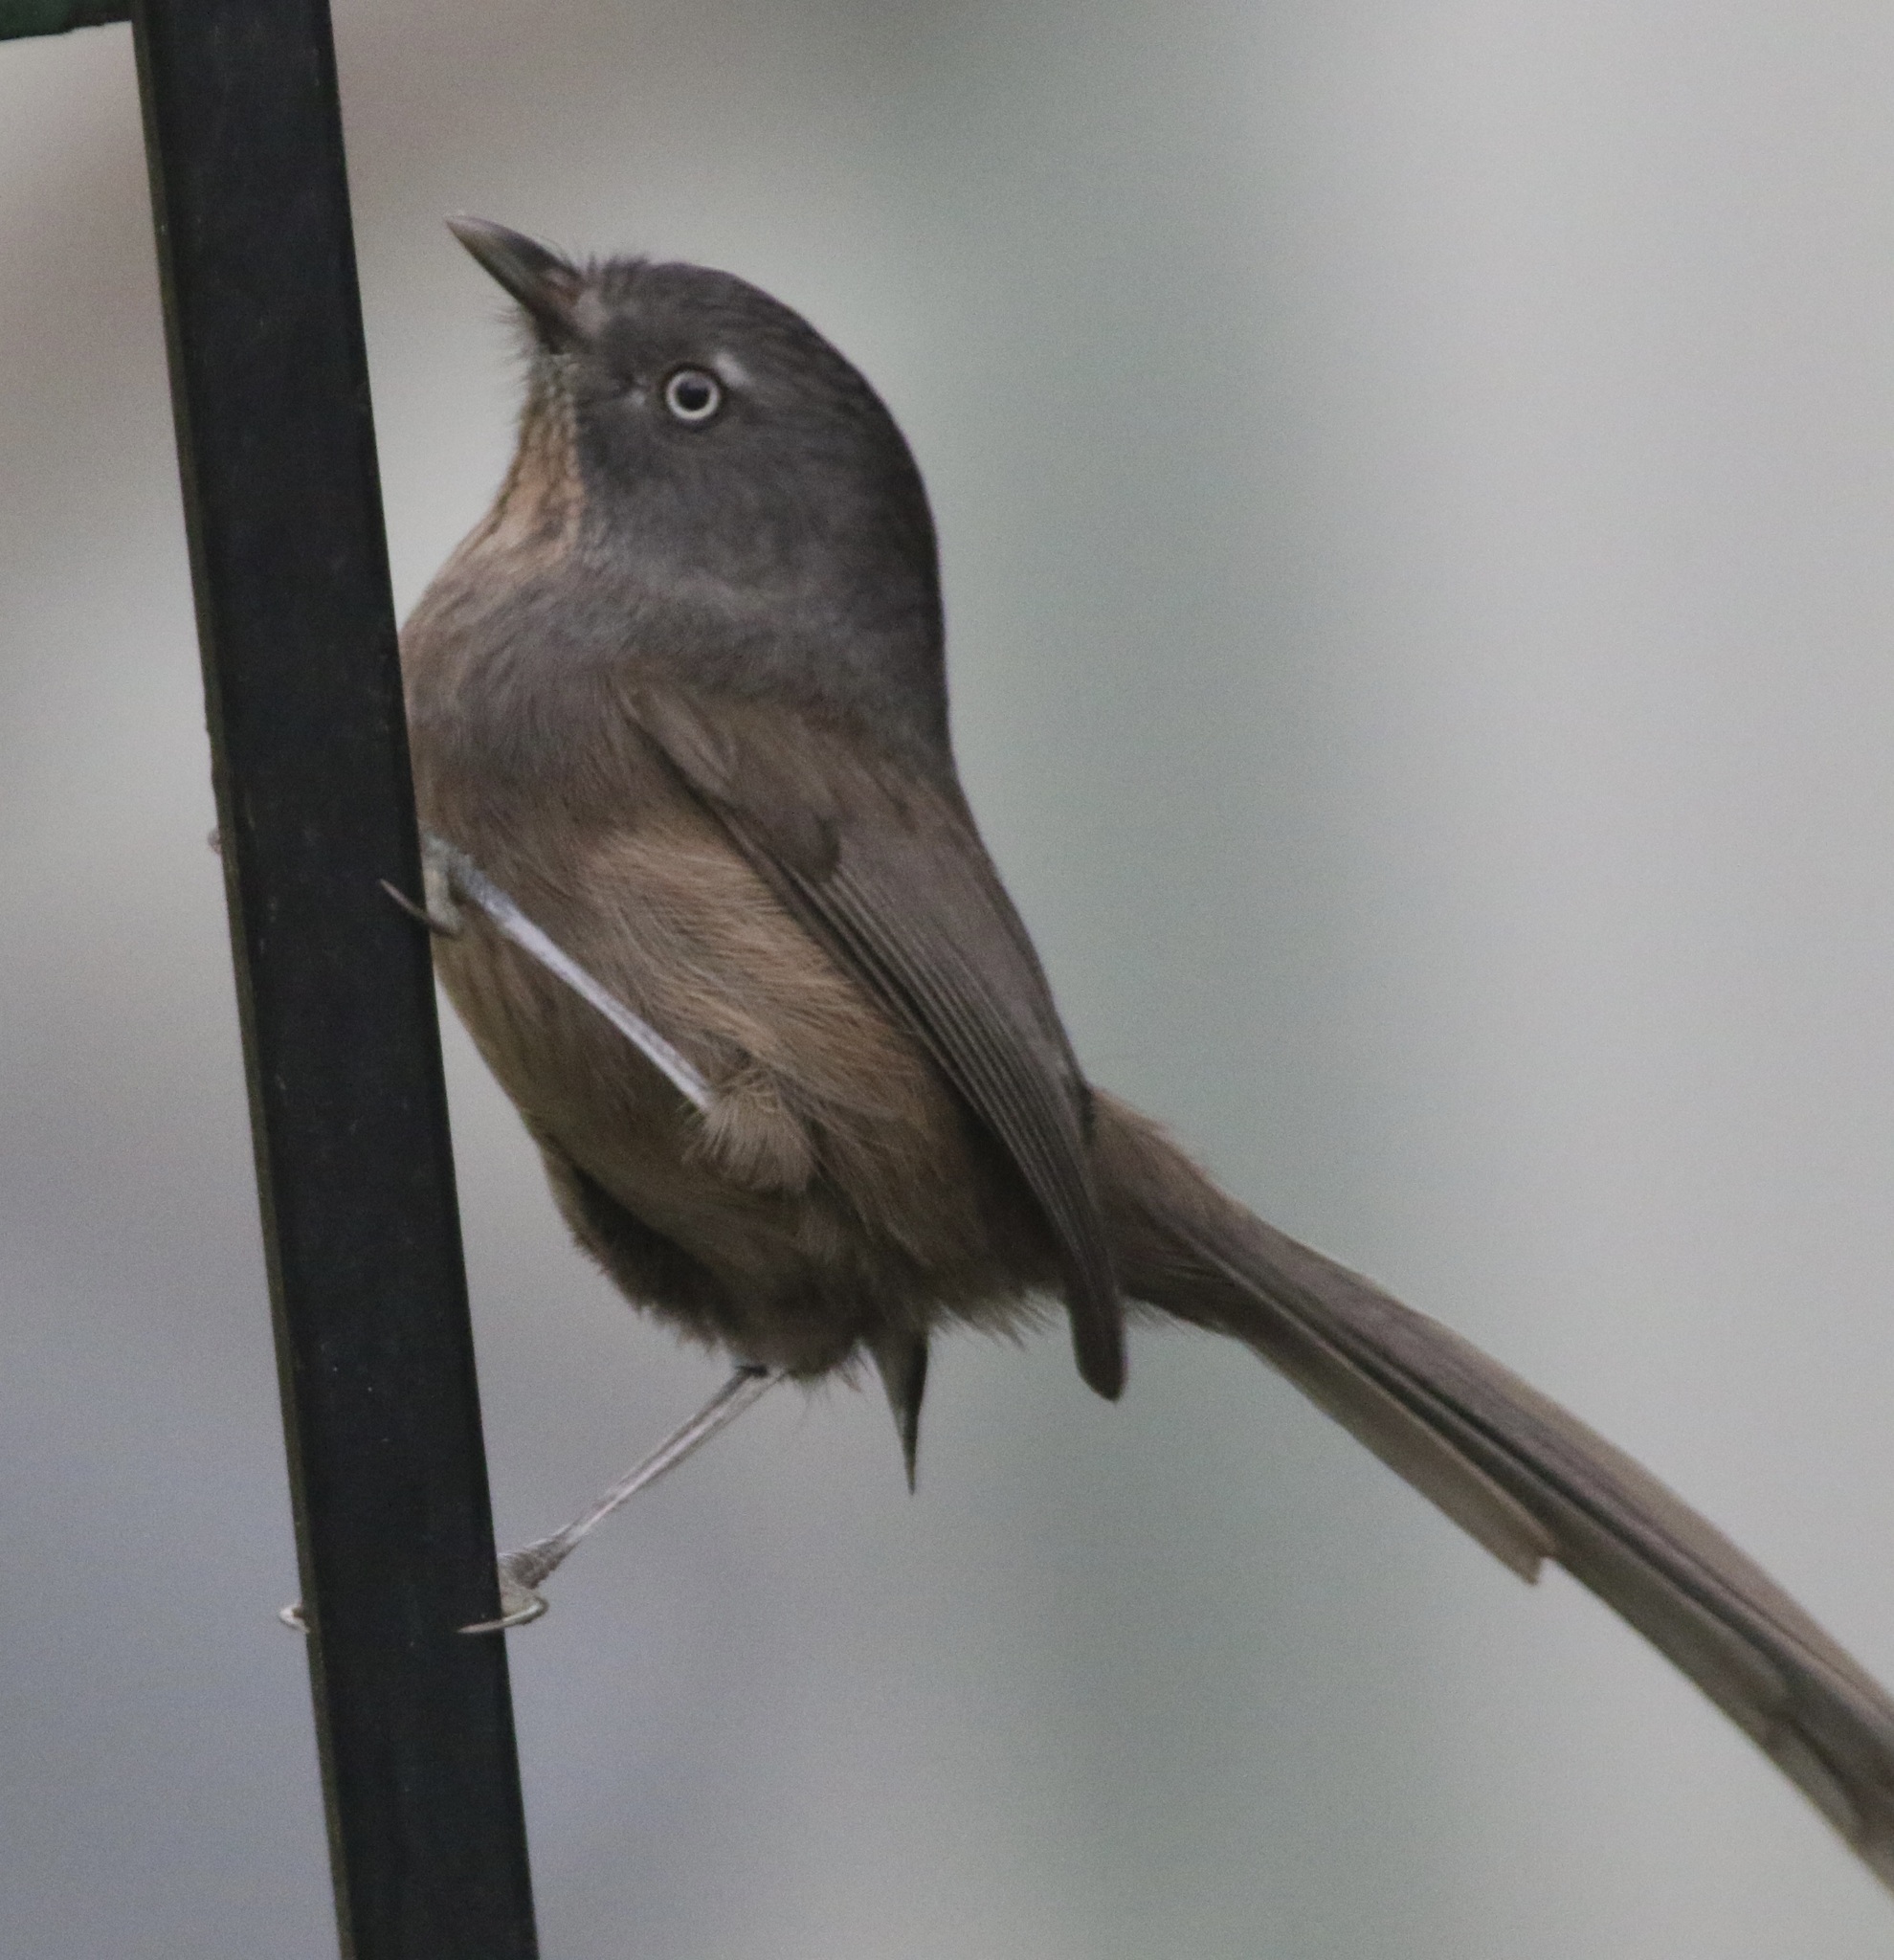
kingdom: Animalia
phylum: Chordata
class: Aves
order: Passeriformes
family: Sylviidae
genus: Chamaea
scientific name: Chamaea fasciata
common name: Wrentit
